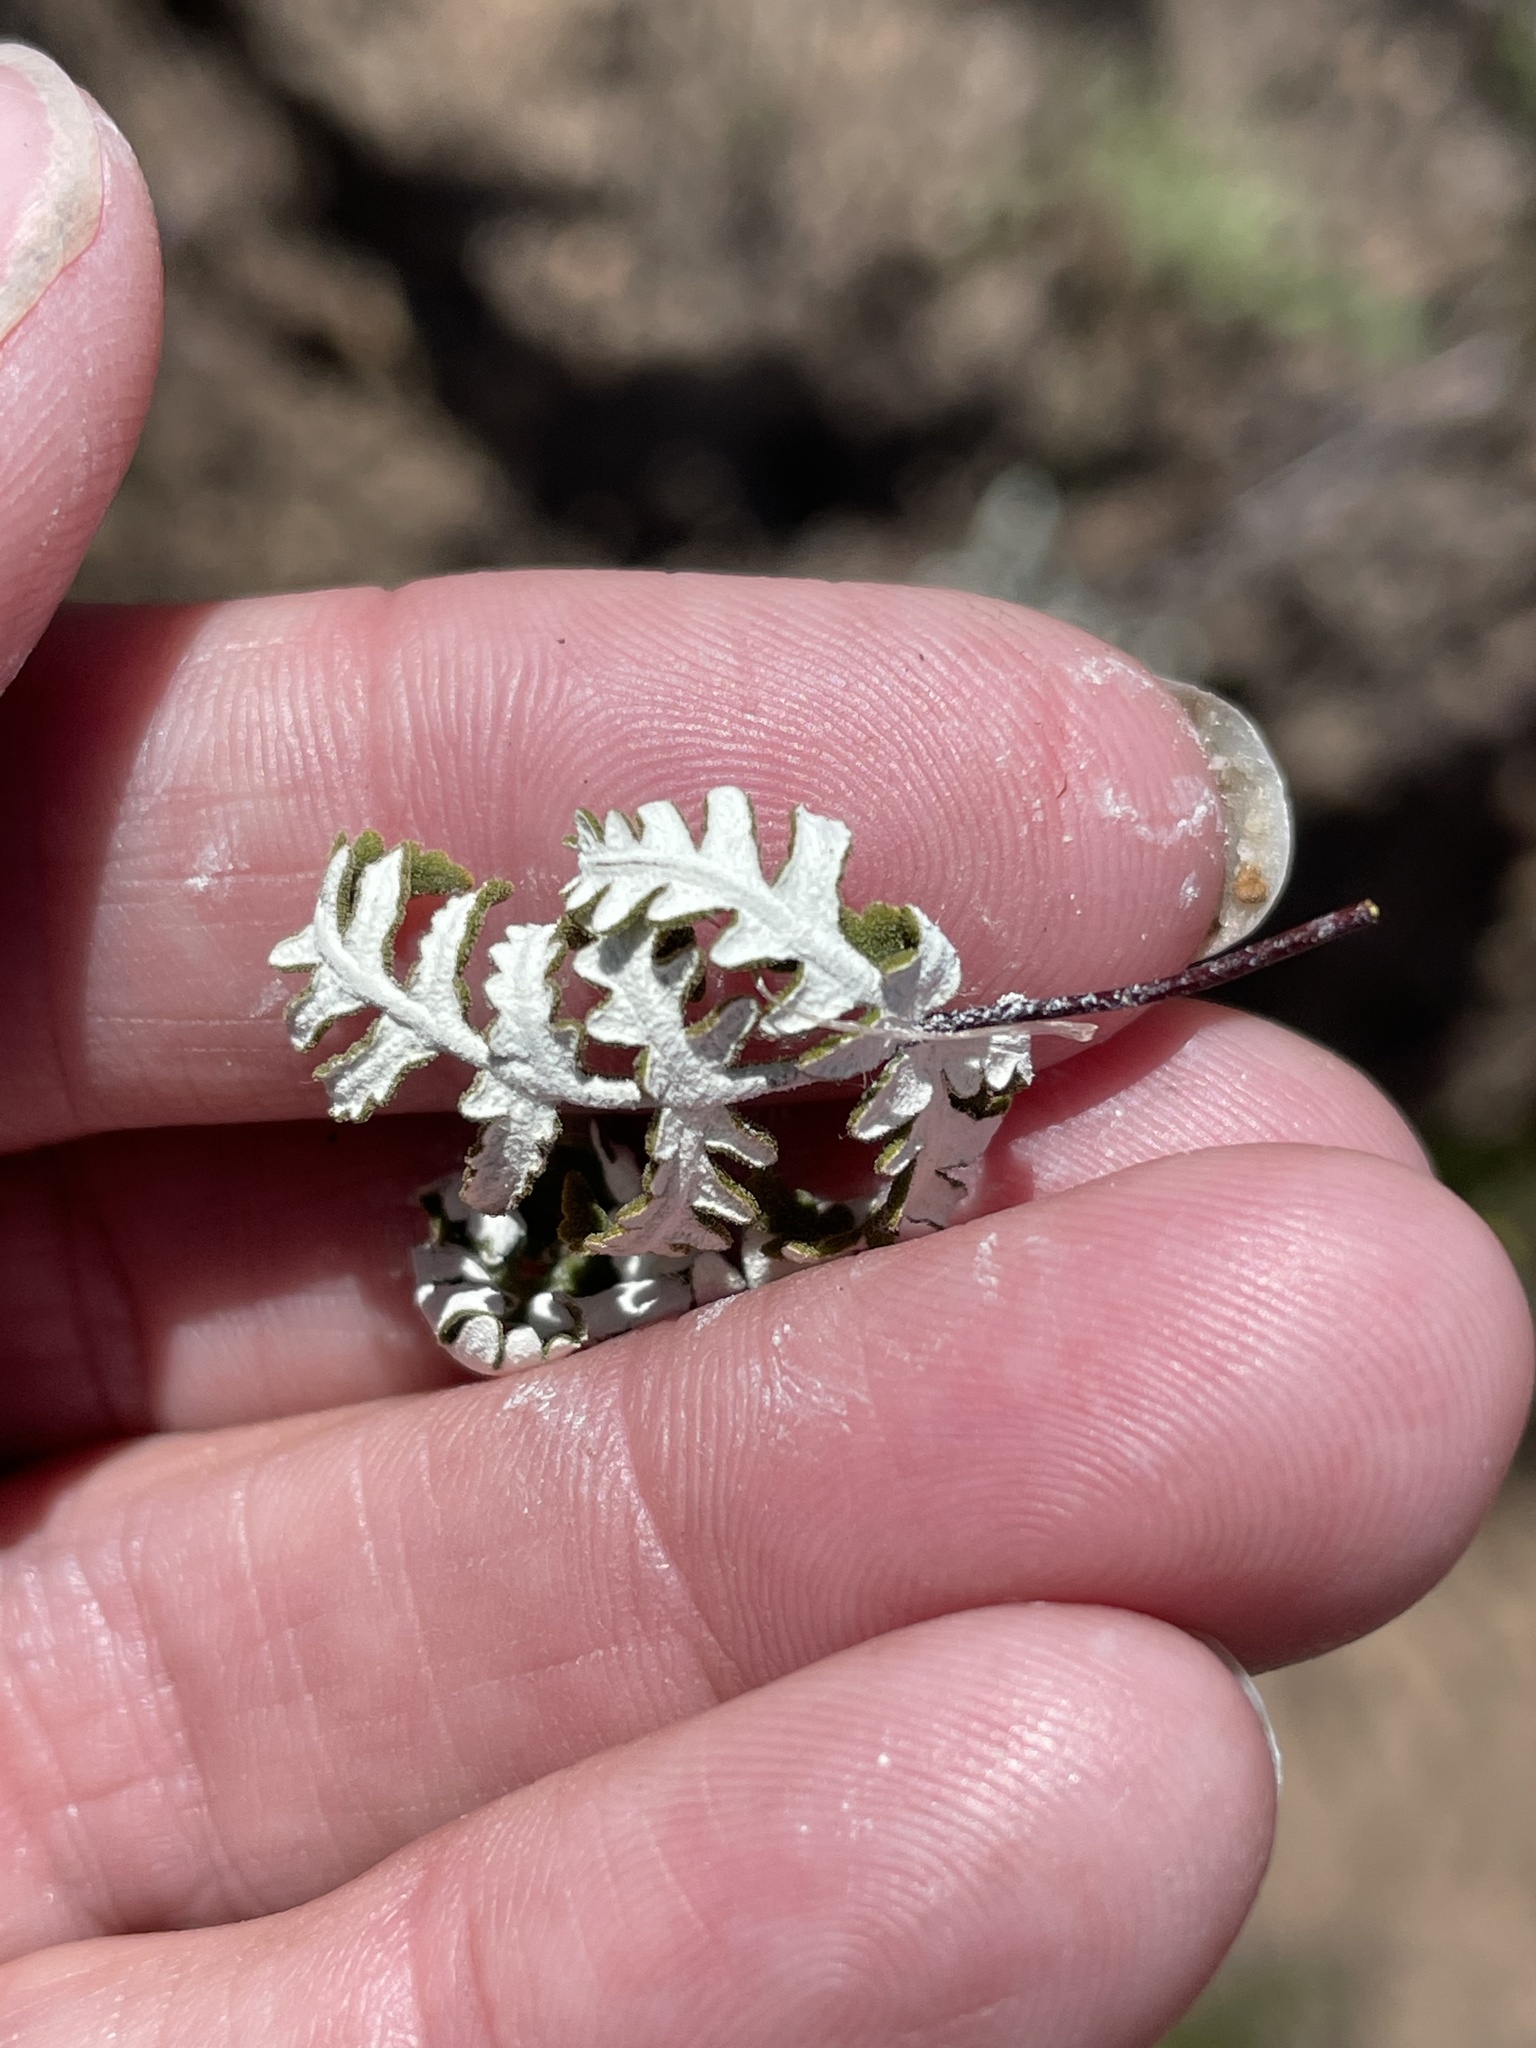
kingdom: Plantae
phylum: Tracheophyta
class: Polypodiopsida
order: Polypodiales
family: Pteridaceae
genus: Pentagramma
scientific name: Pentagramma glanduloviscida
